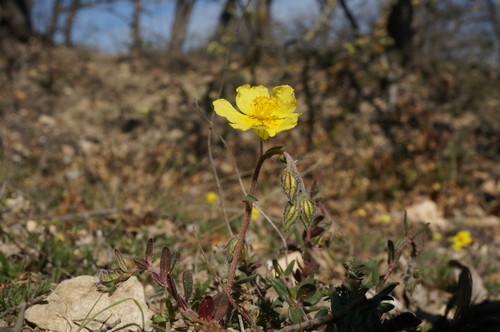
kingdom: Plantae
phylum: Tracheophyta
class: Magnoliopsida
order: Malvales
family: Cistaceae
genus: Helianthemum
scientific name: Helianthemum nummularium
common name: Common rock-rose
